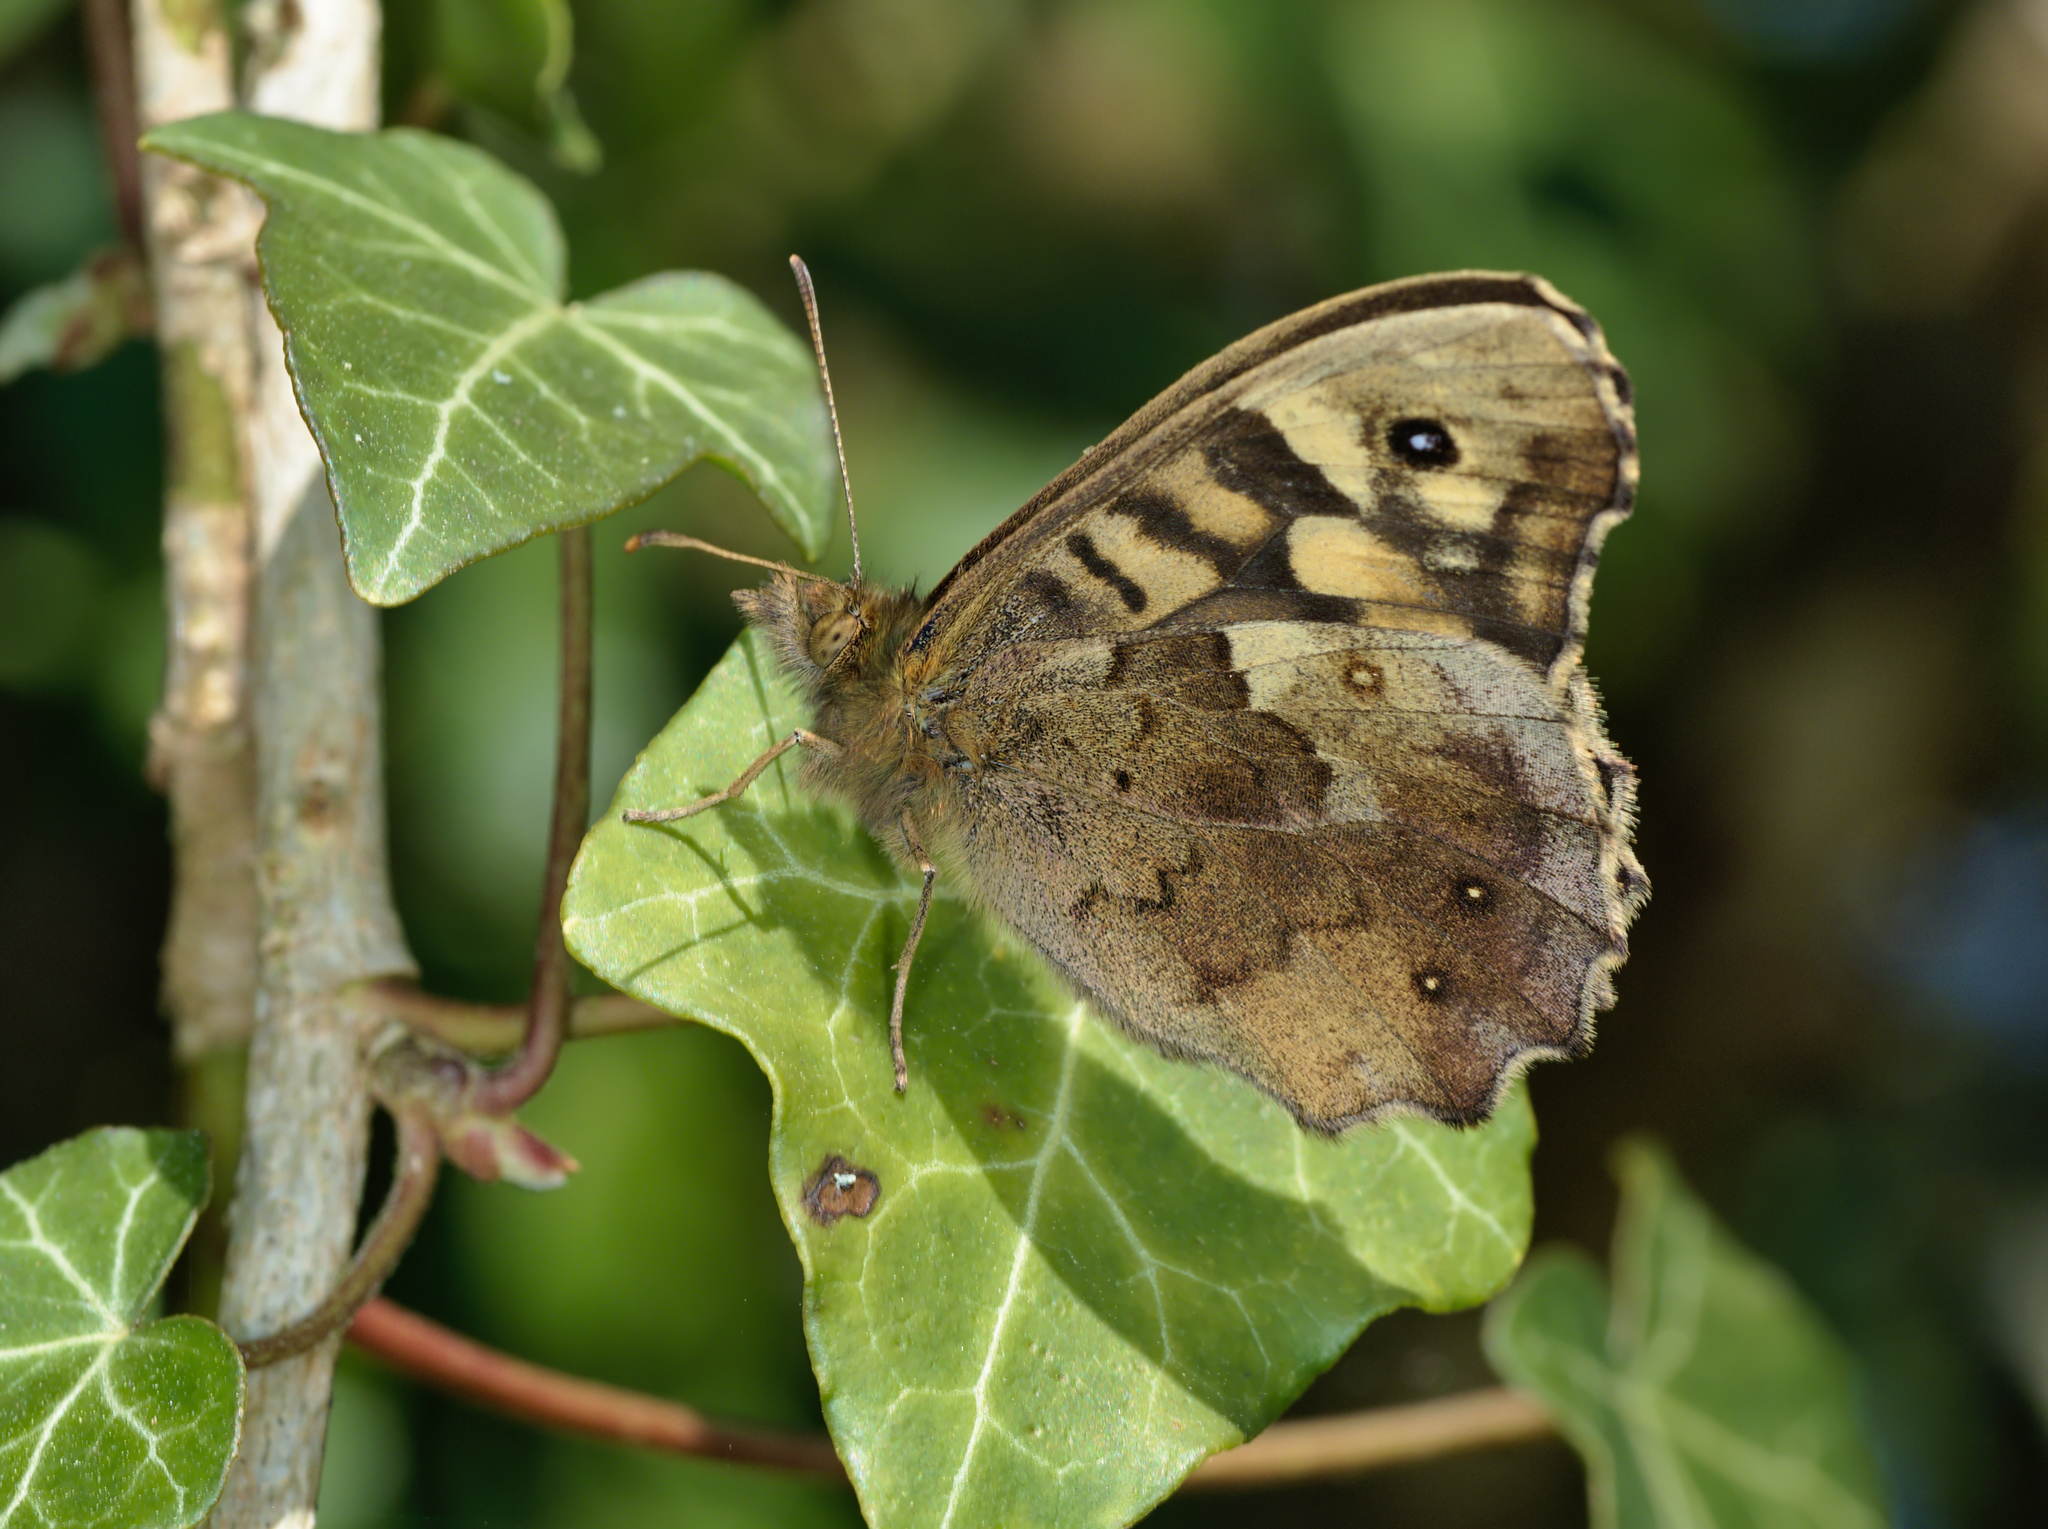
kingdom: Animalia
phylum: Arthropoda
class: Insecta
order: Lepidoptera
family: Nymphalidae
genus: Pararge
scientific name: Pararge aegeria
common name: Speckled wood
